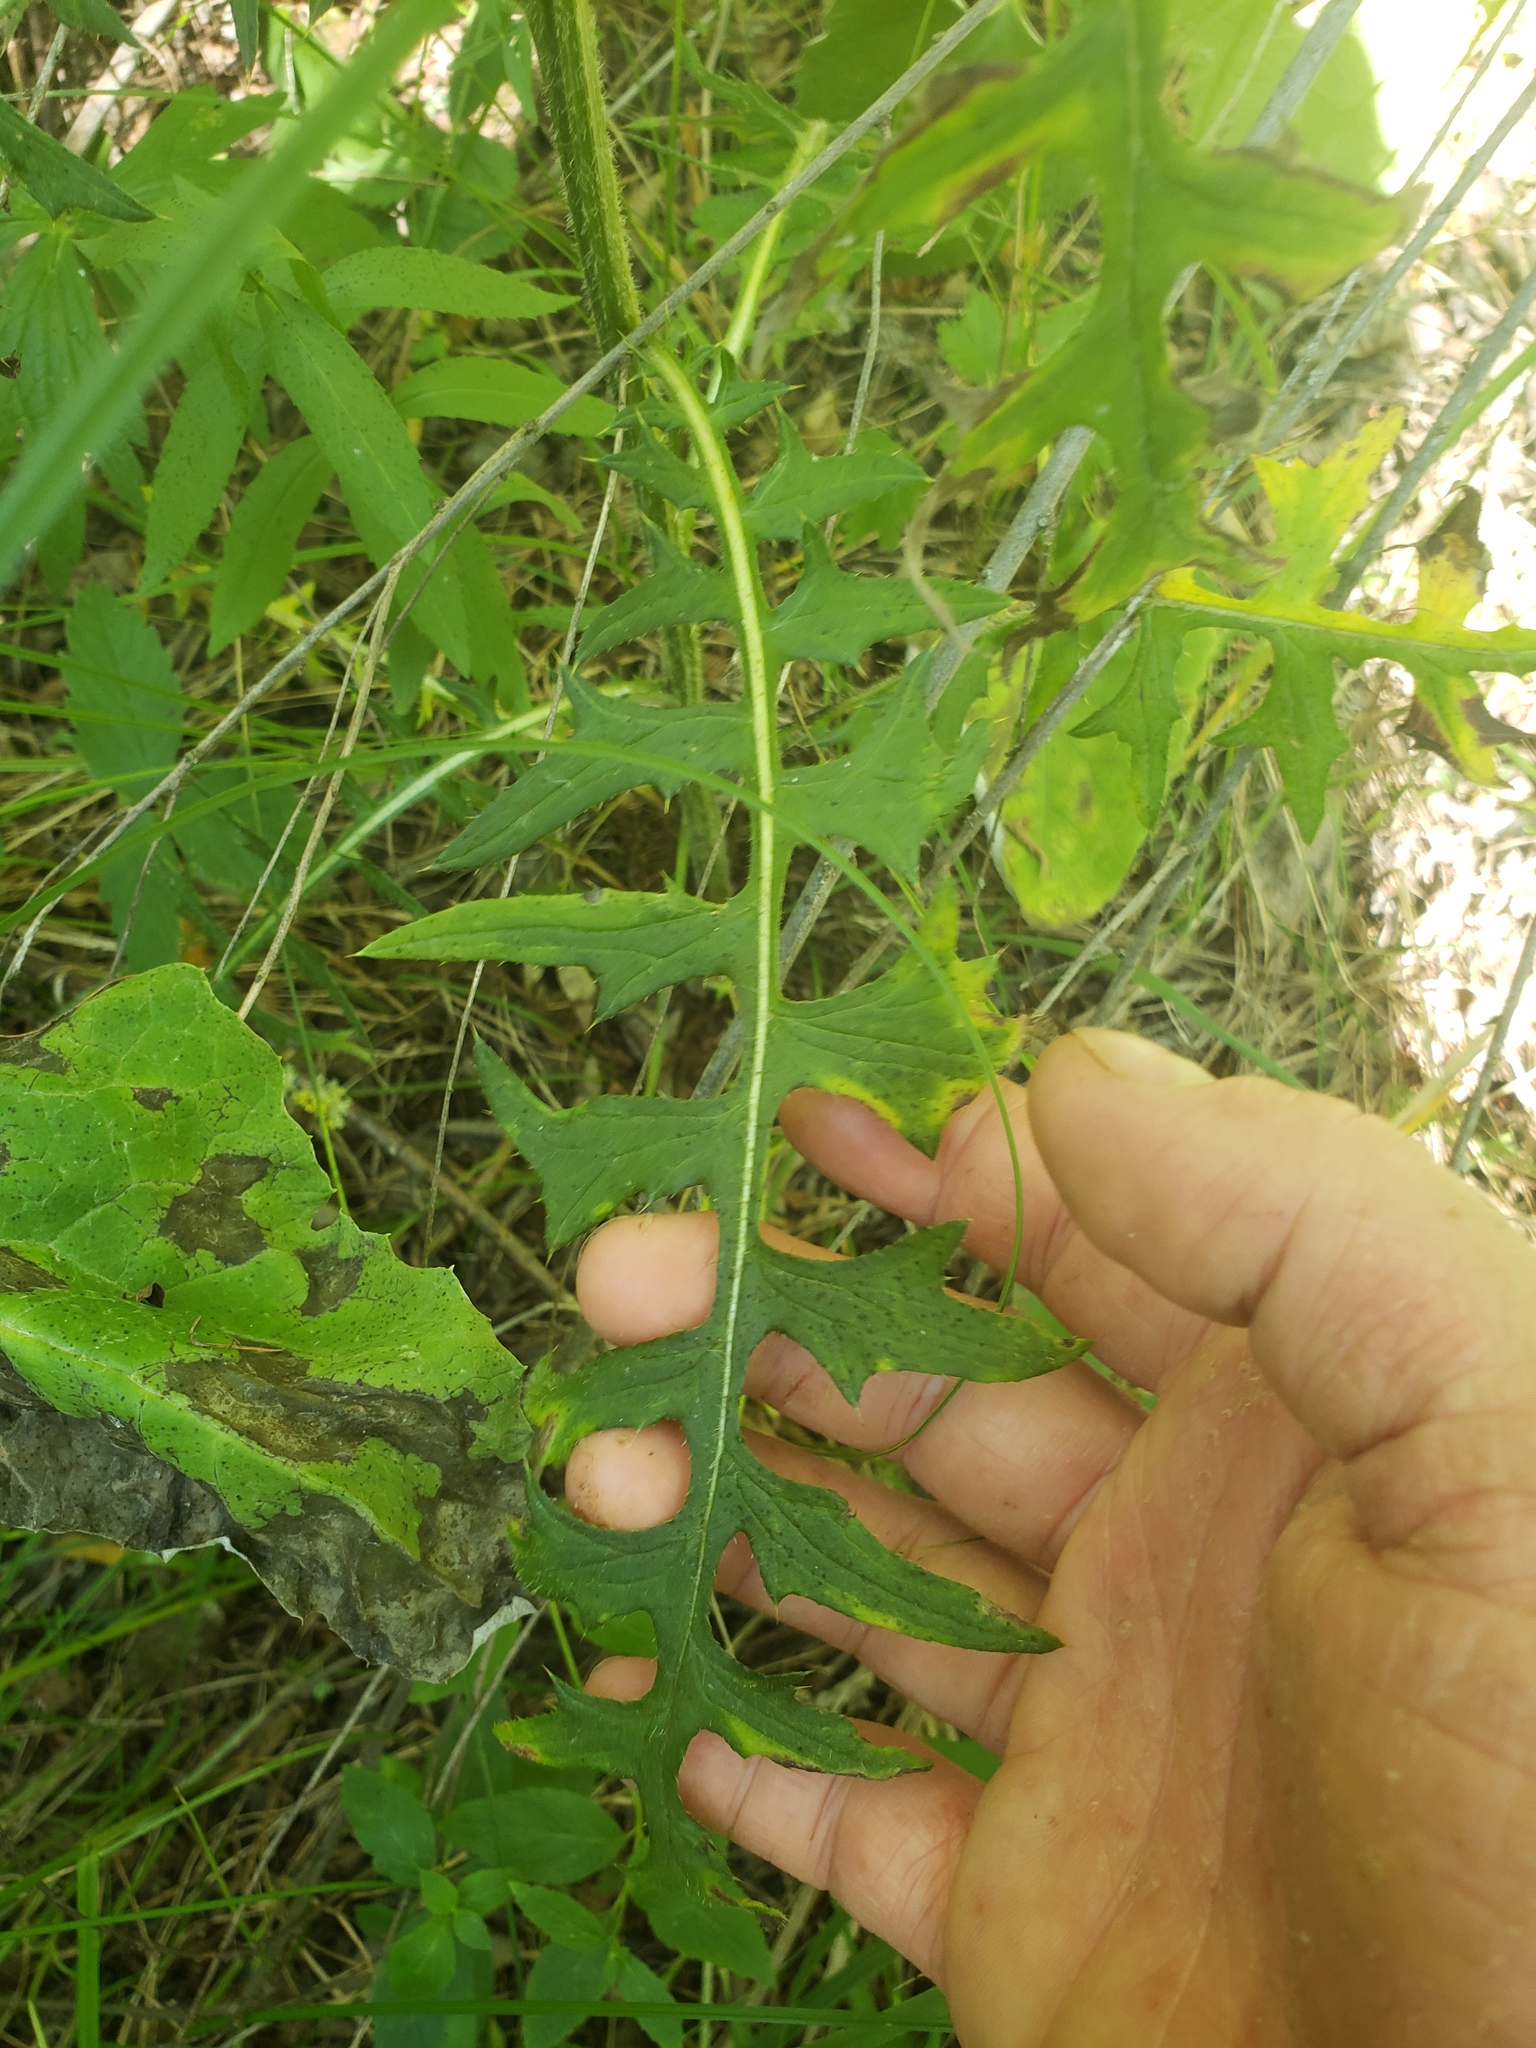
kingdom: Plantae
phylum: Tracheophyta
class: Magnoliopsida
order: Asterales
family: Asteraceae
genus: Cirsium
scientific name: Cirsium muticum
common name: Dunce-nettle
